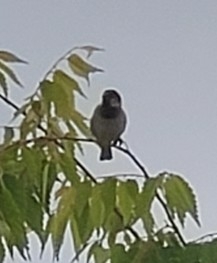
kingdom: Animalia
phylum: Chordata
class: Aves
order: Passeriformes
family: Passeridae
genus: Passer
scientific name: Passer domesticus
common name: House sparrow
